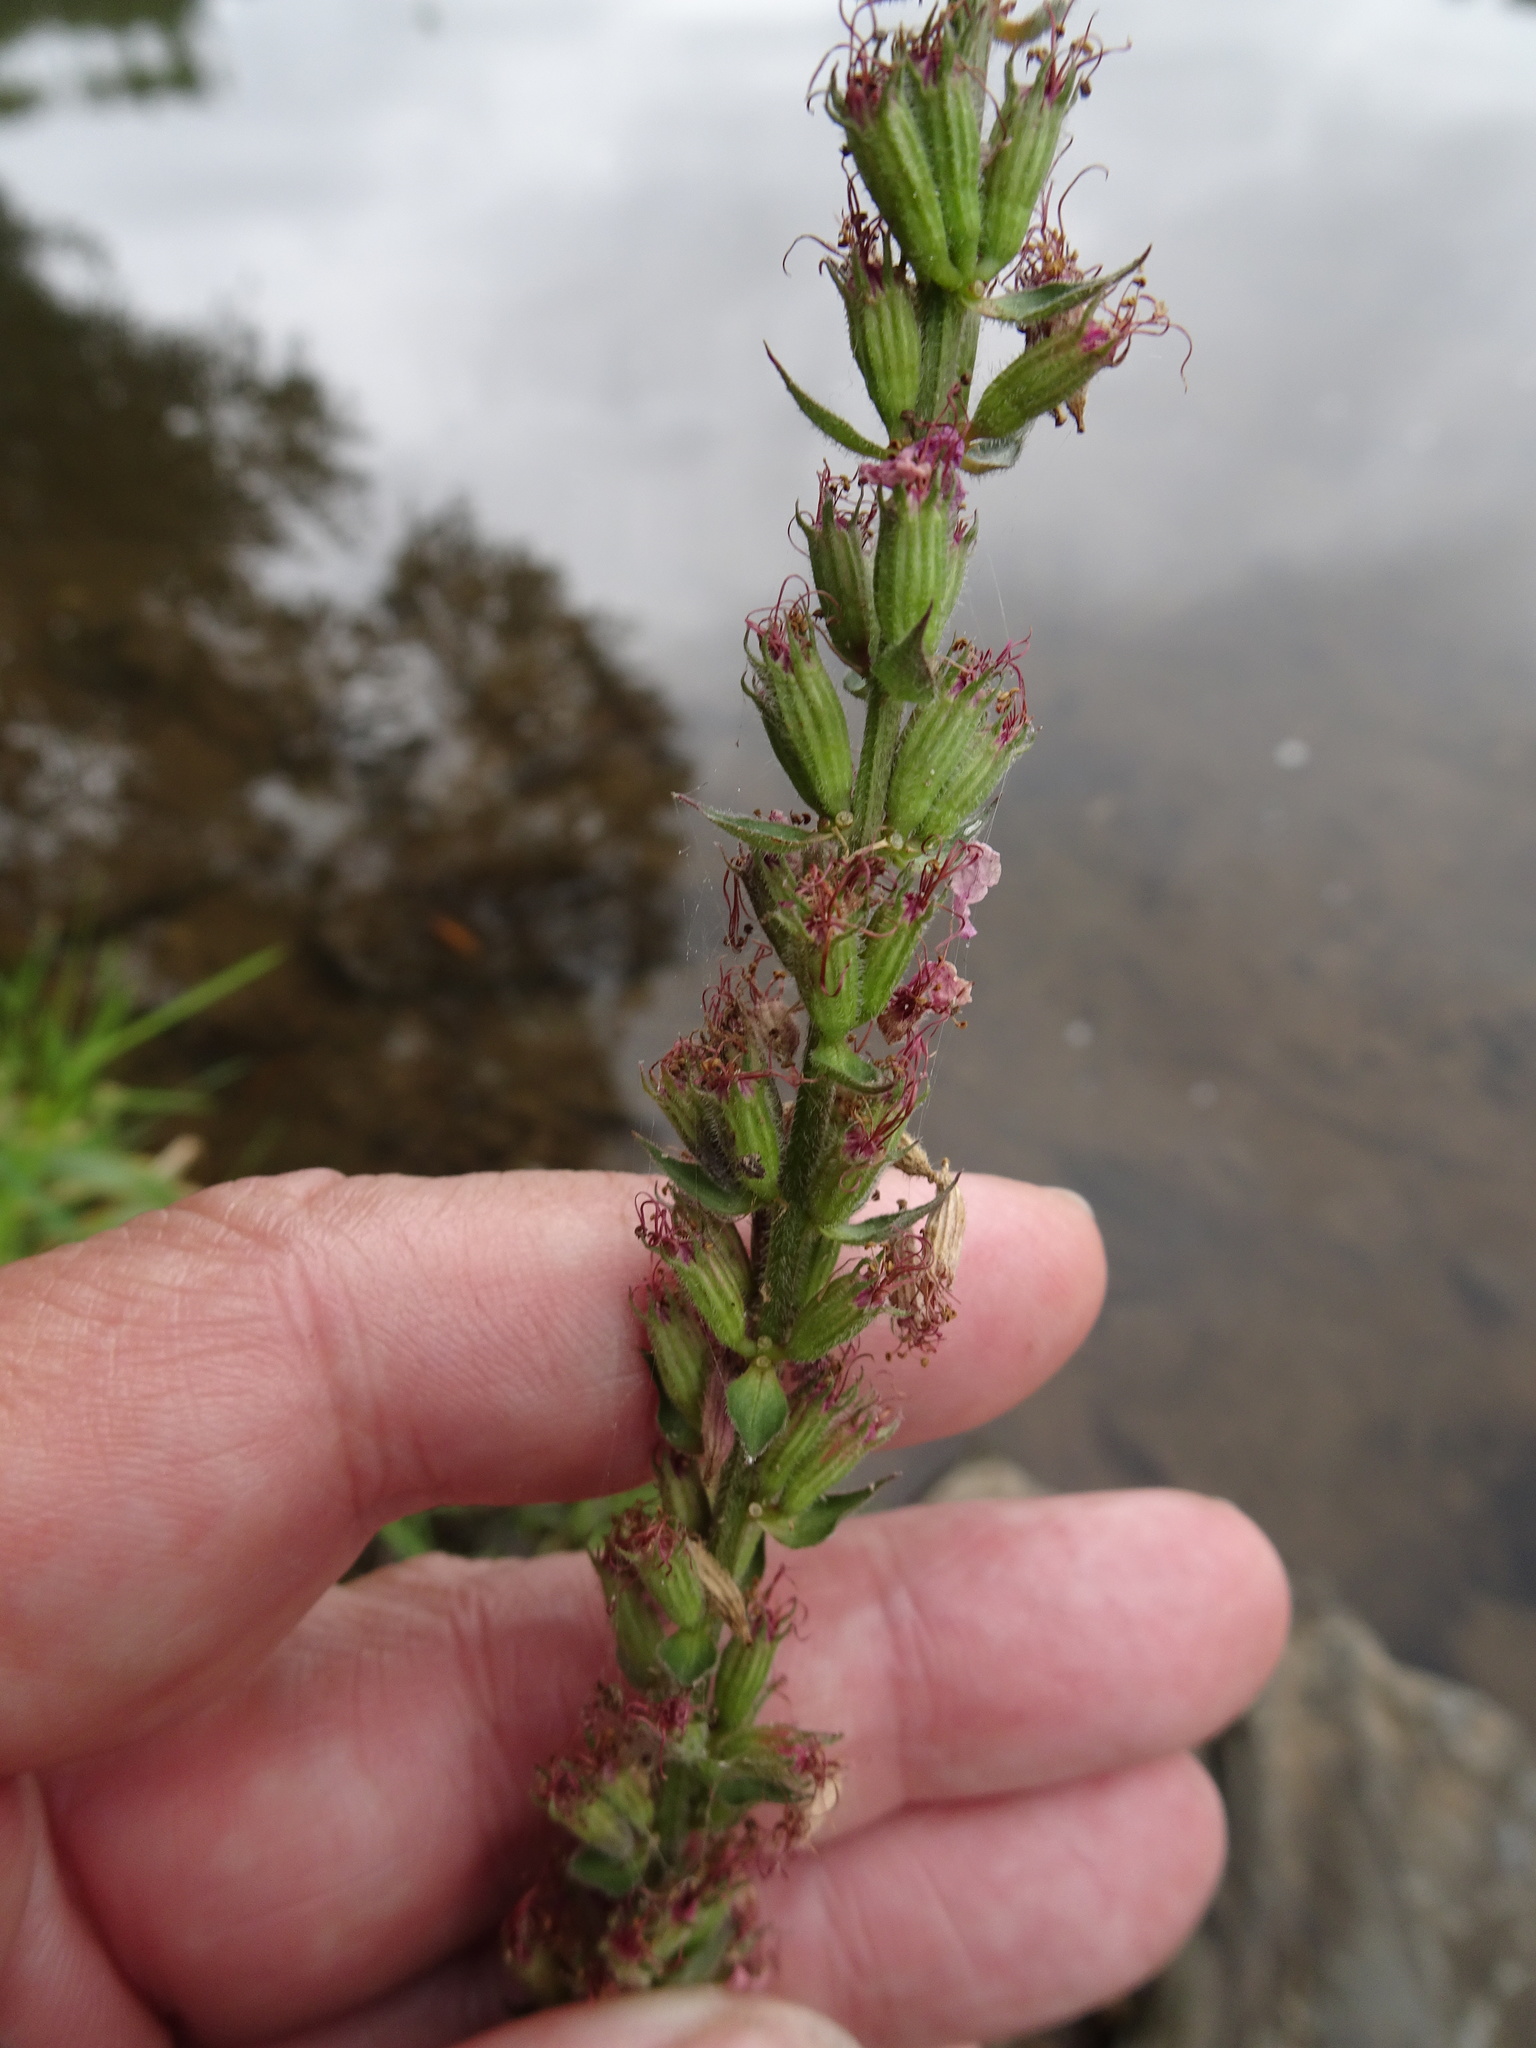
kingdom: Plantae
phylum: Tracheophyta
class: Magnoliopsida
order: Myrtales
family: Lythraceae
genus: Lythrum
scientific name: Lythrum salicaria
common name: Purple loosestrife
